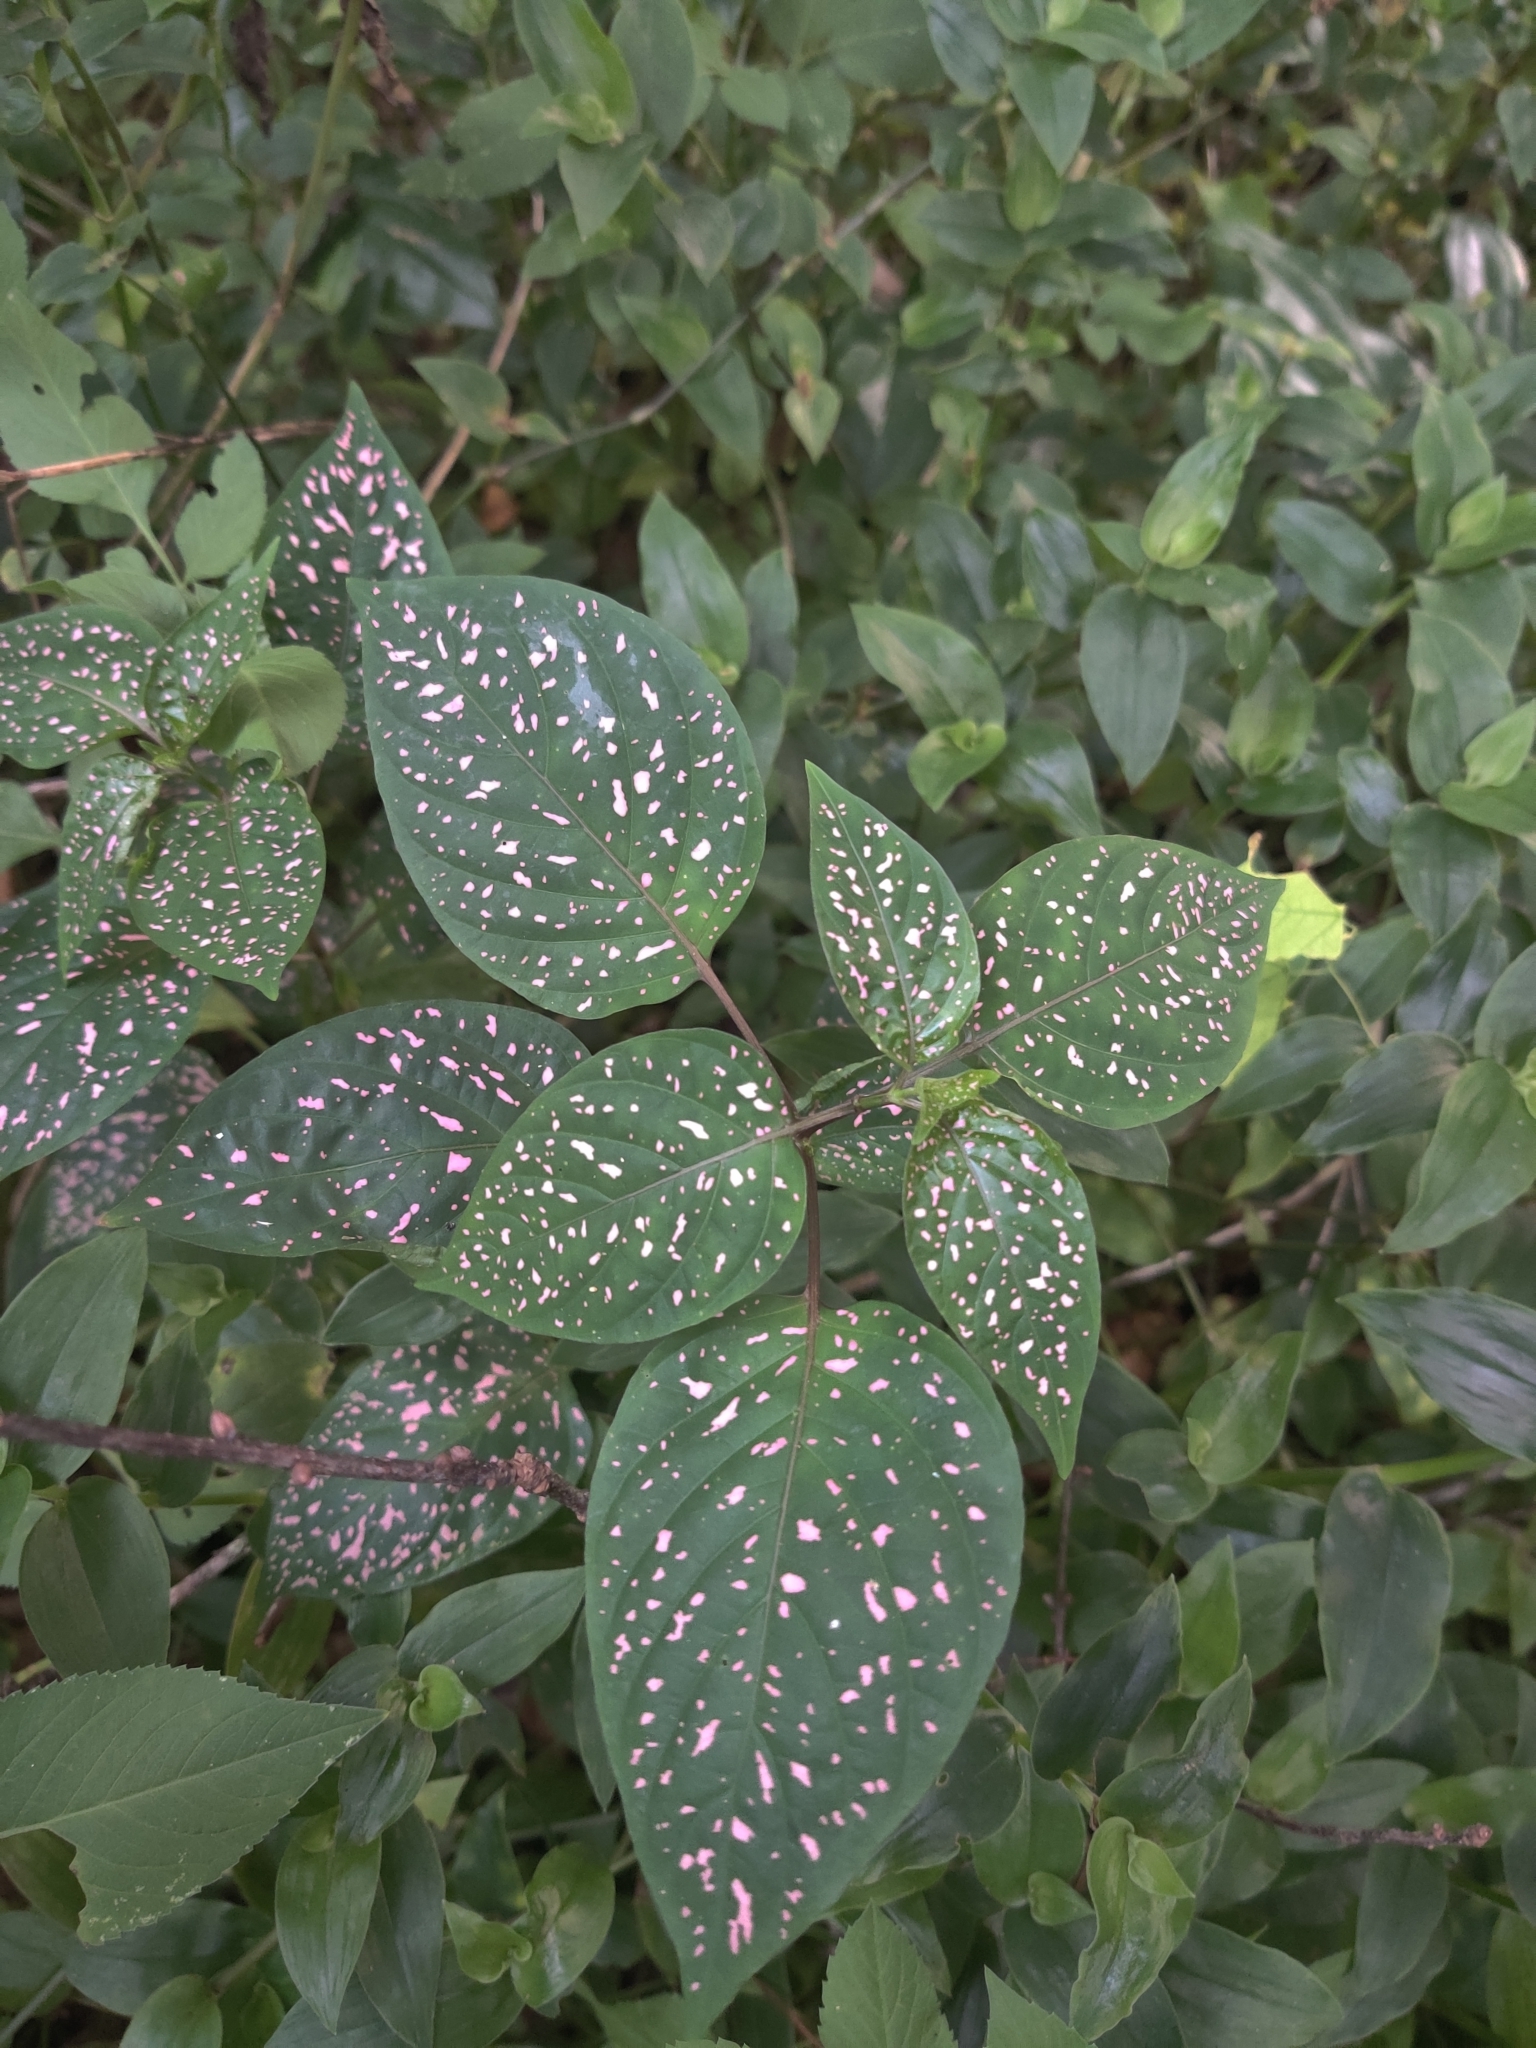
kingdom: Plantae
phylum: Tracheophyta
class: Magnoliopsida
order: Lamiales
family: Acanthaceae
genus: Hypoestes
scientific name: Hypoestes phyllostachya
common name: Polkadot-plant
